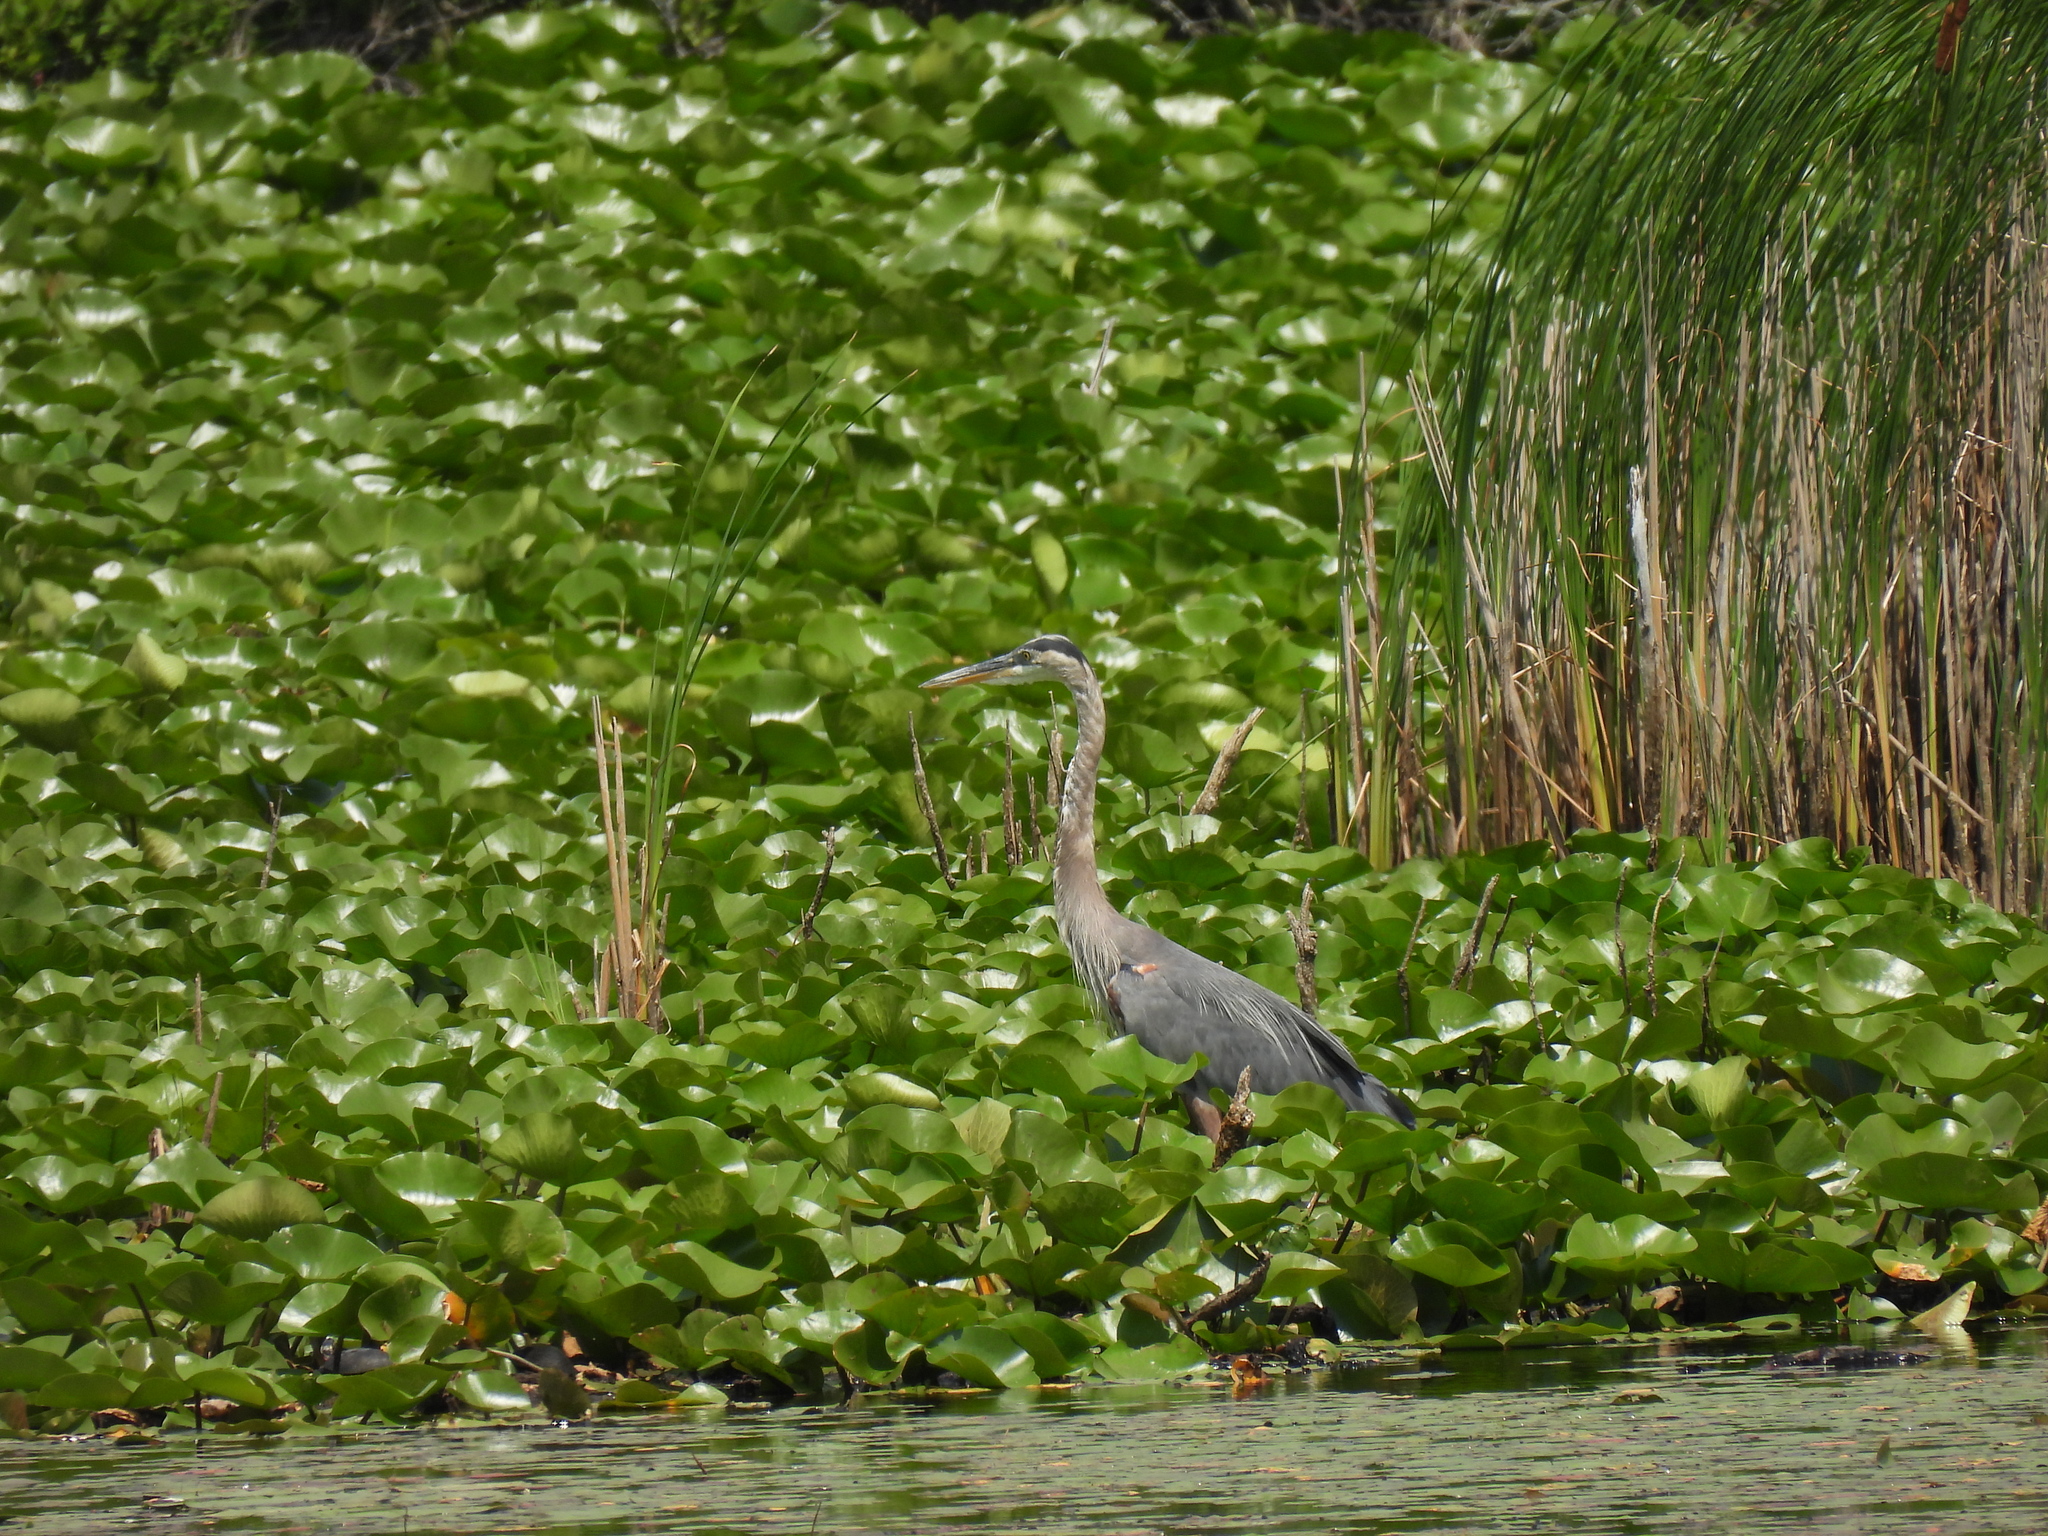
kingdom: Animalia
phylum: Chordata
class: Aves
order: Pelecaniformes
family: Ardeidae
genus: Ardea
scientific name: Ardea herodias
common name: Great blue heron
